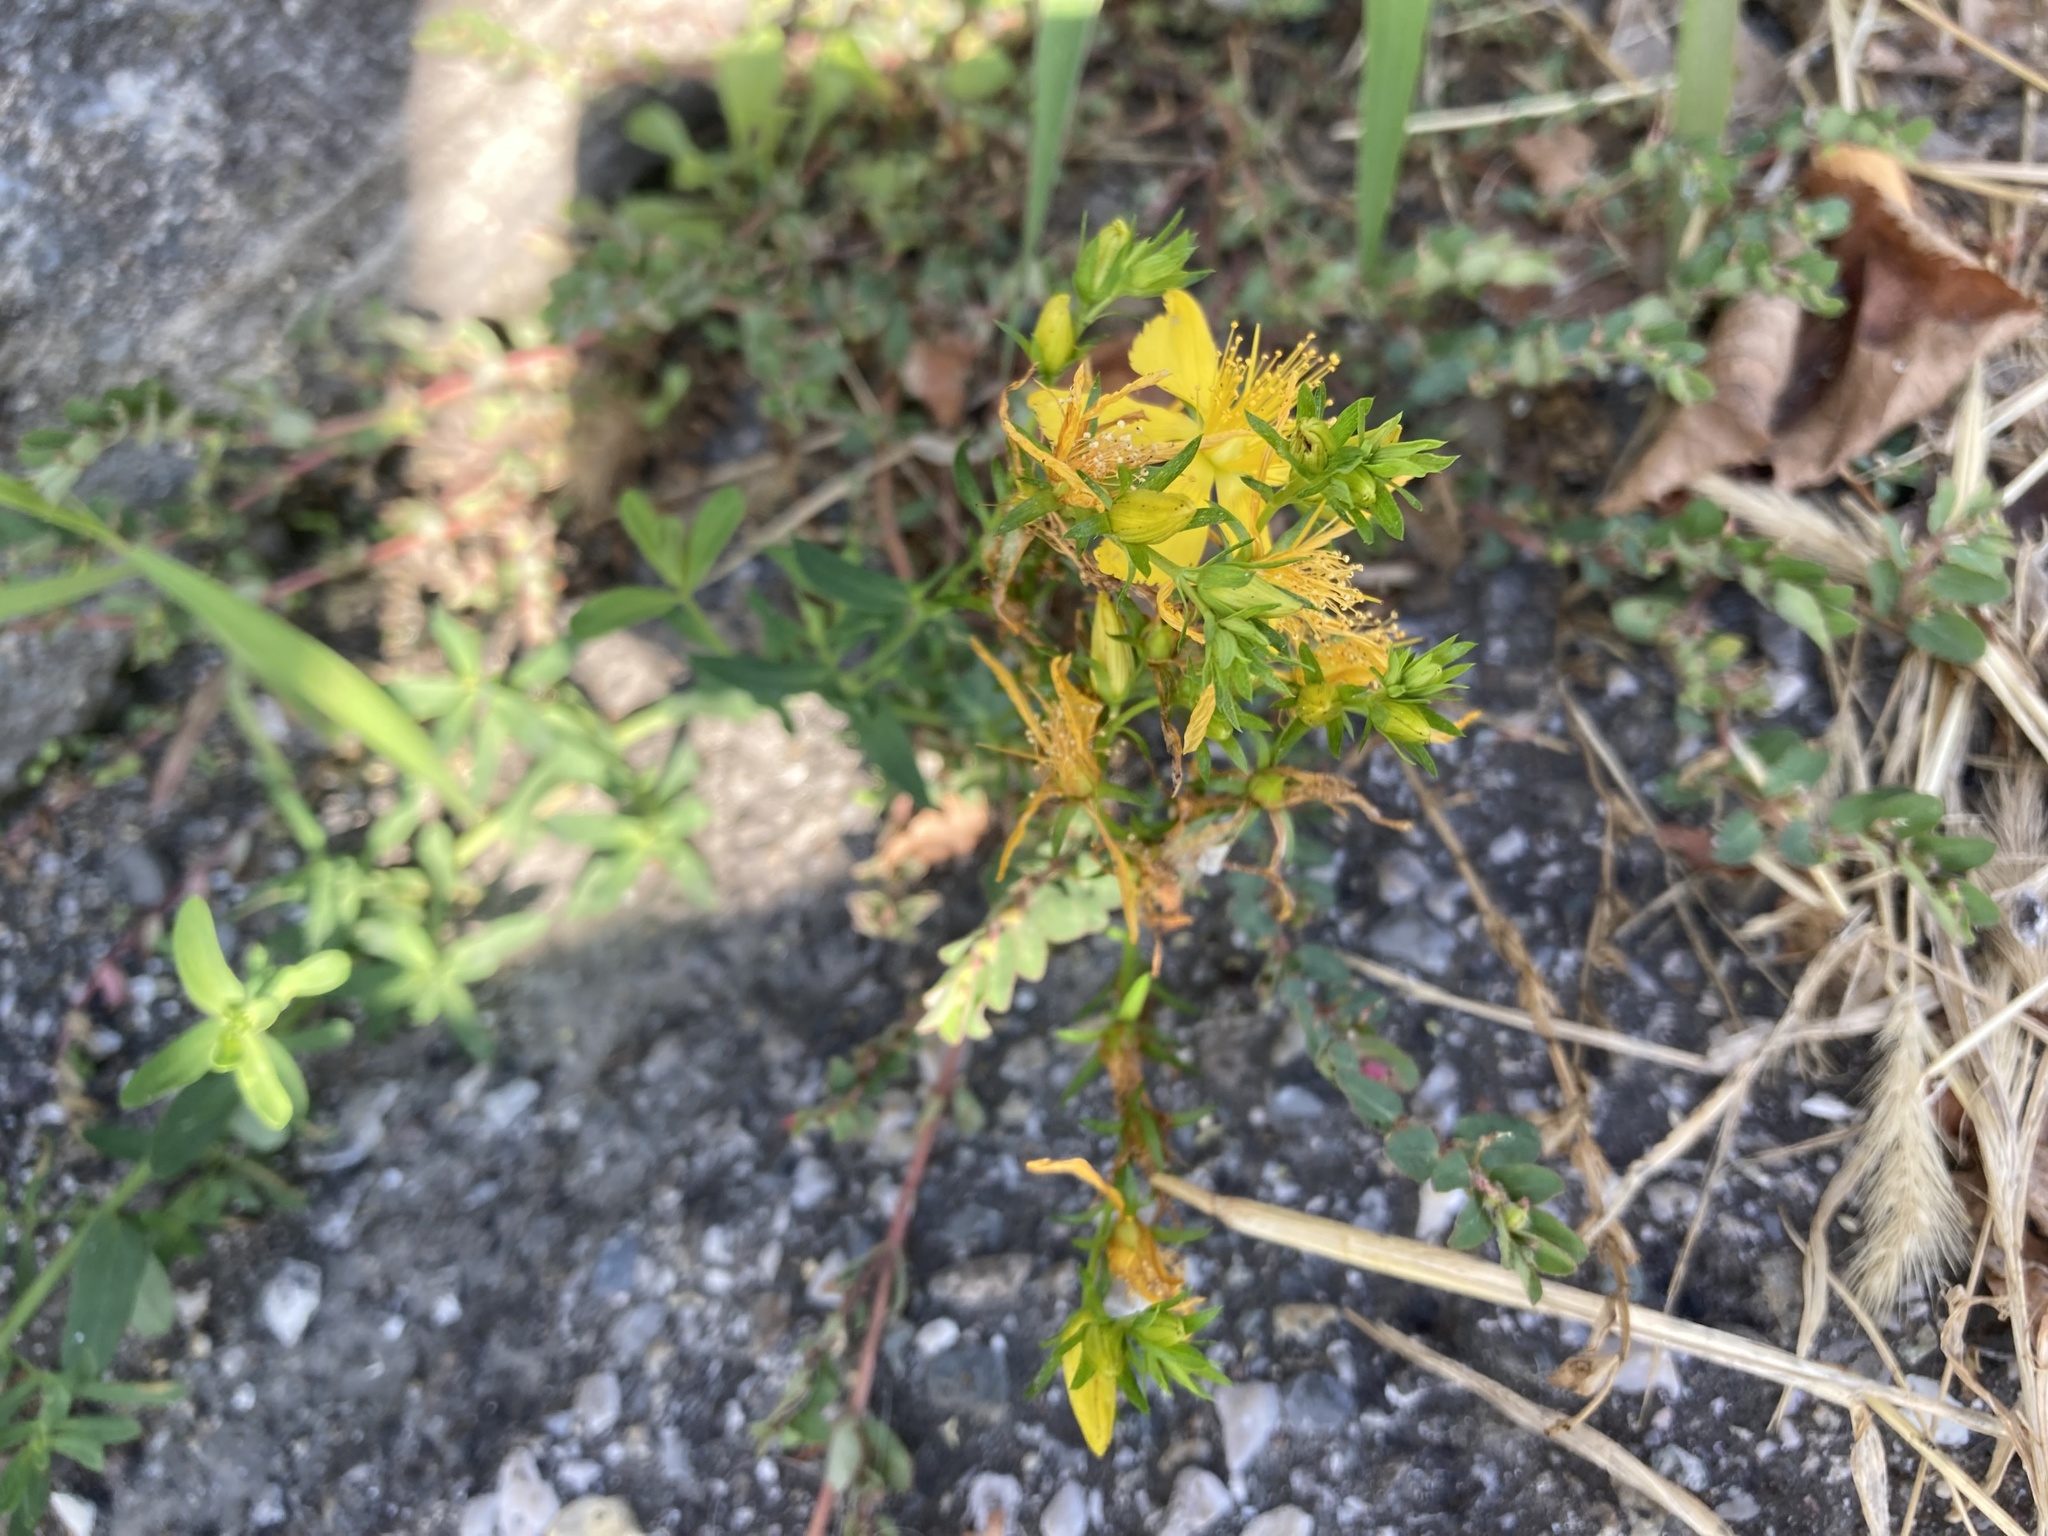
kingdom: Plantae
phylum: Tracheophyta
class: Magnoliopsida
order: Malpighiales
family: Hypericaceae
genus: Hypericum
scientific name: Hypericum perforatum
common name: Common st. johnswort
